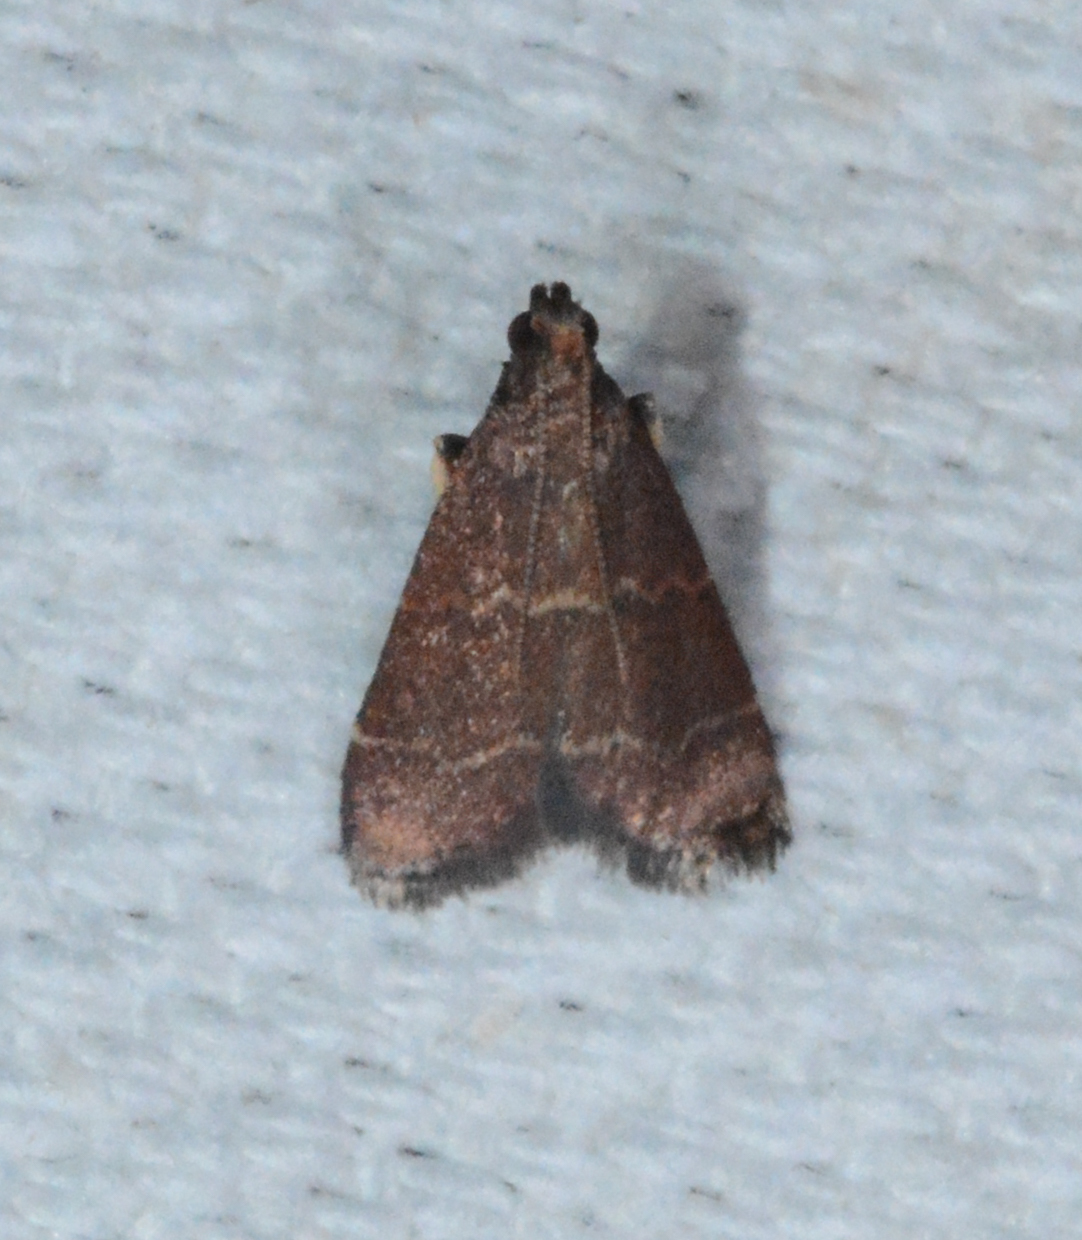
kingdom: Animalia
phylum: Arthropoda
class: Insecta
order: Lepidoptera
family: Pyralidae
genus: Arta
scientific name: Arta
